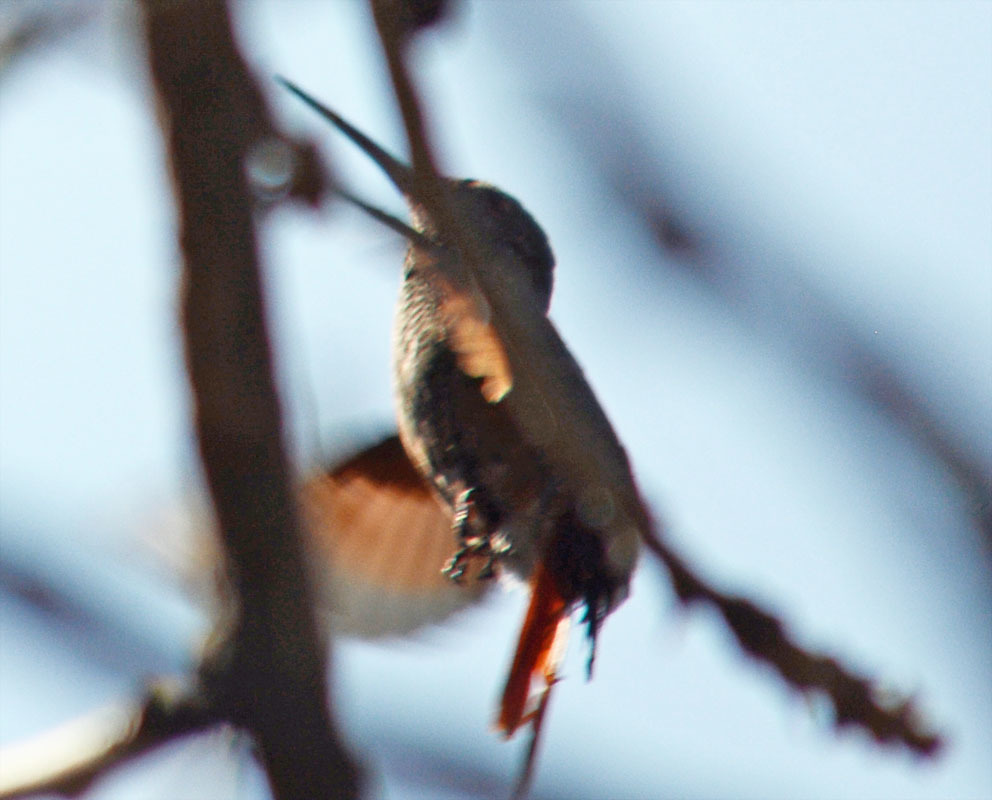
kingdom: Animalia
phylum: Chordata
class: Aves
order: Apodiformes
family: Trochilidae
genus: Saucerottia
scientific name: Saucerottia beryllina
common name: Berylline hummingbird
